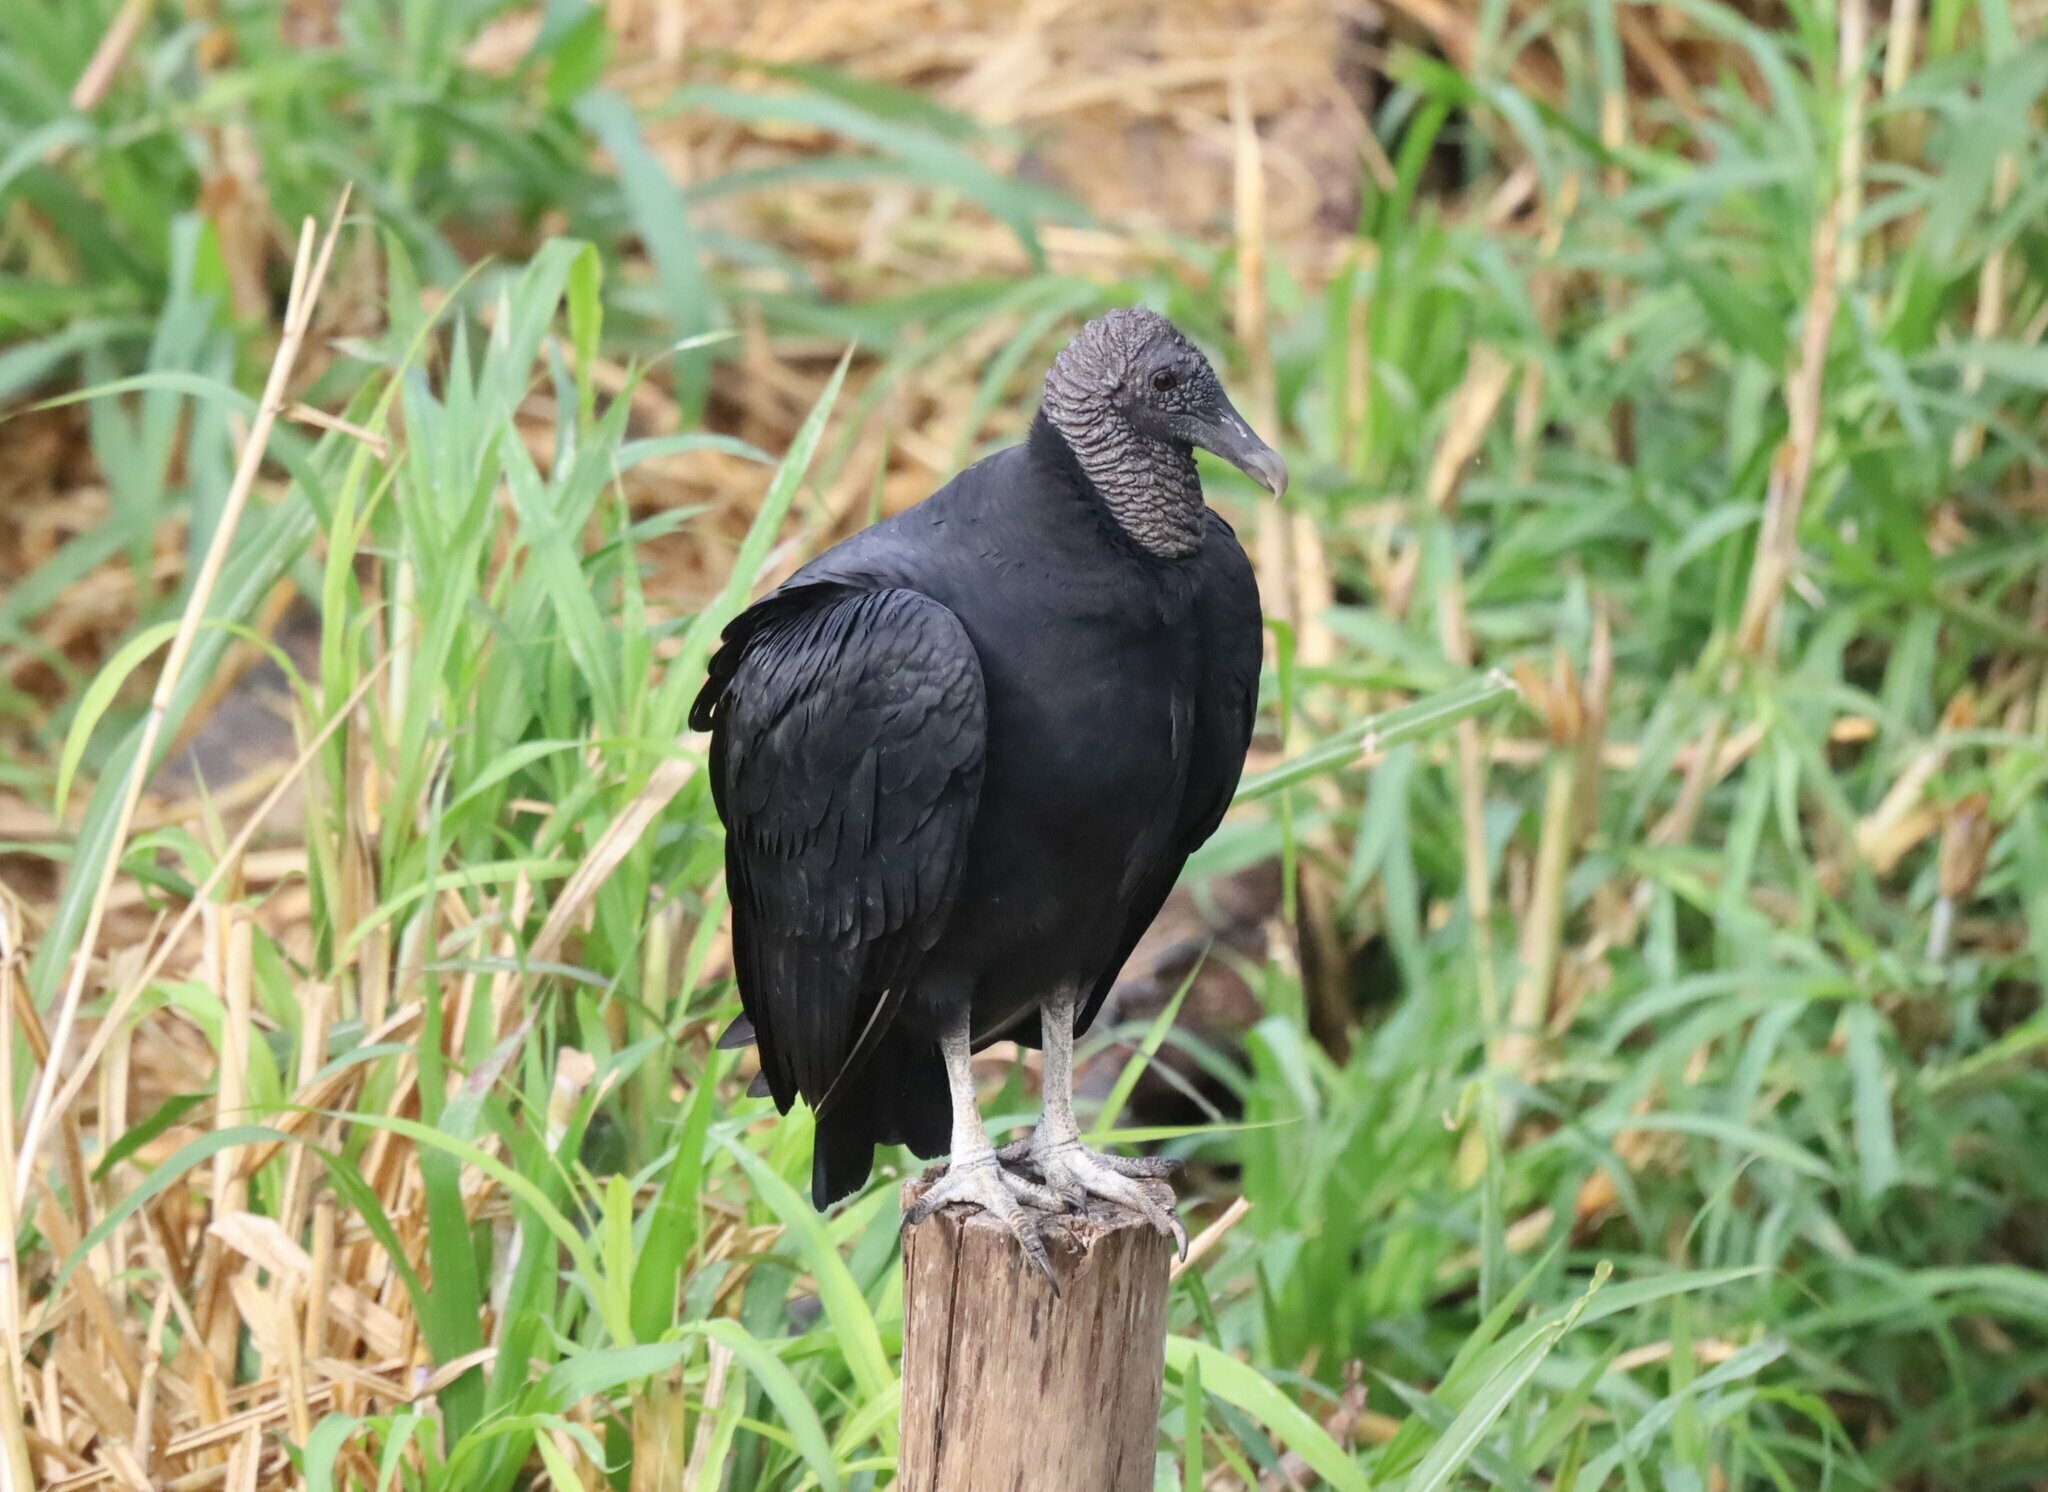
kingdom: Animalia
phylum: Chordata
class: Aves
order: Accipitriformes
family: Cathartidae
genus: Coragyps
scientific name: Coragyps atratus
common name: Black vulture
